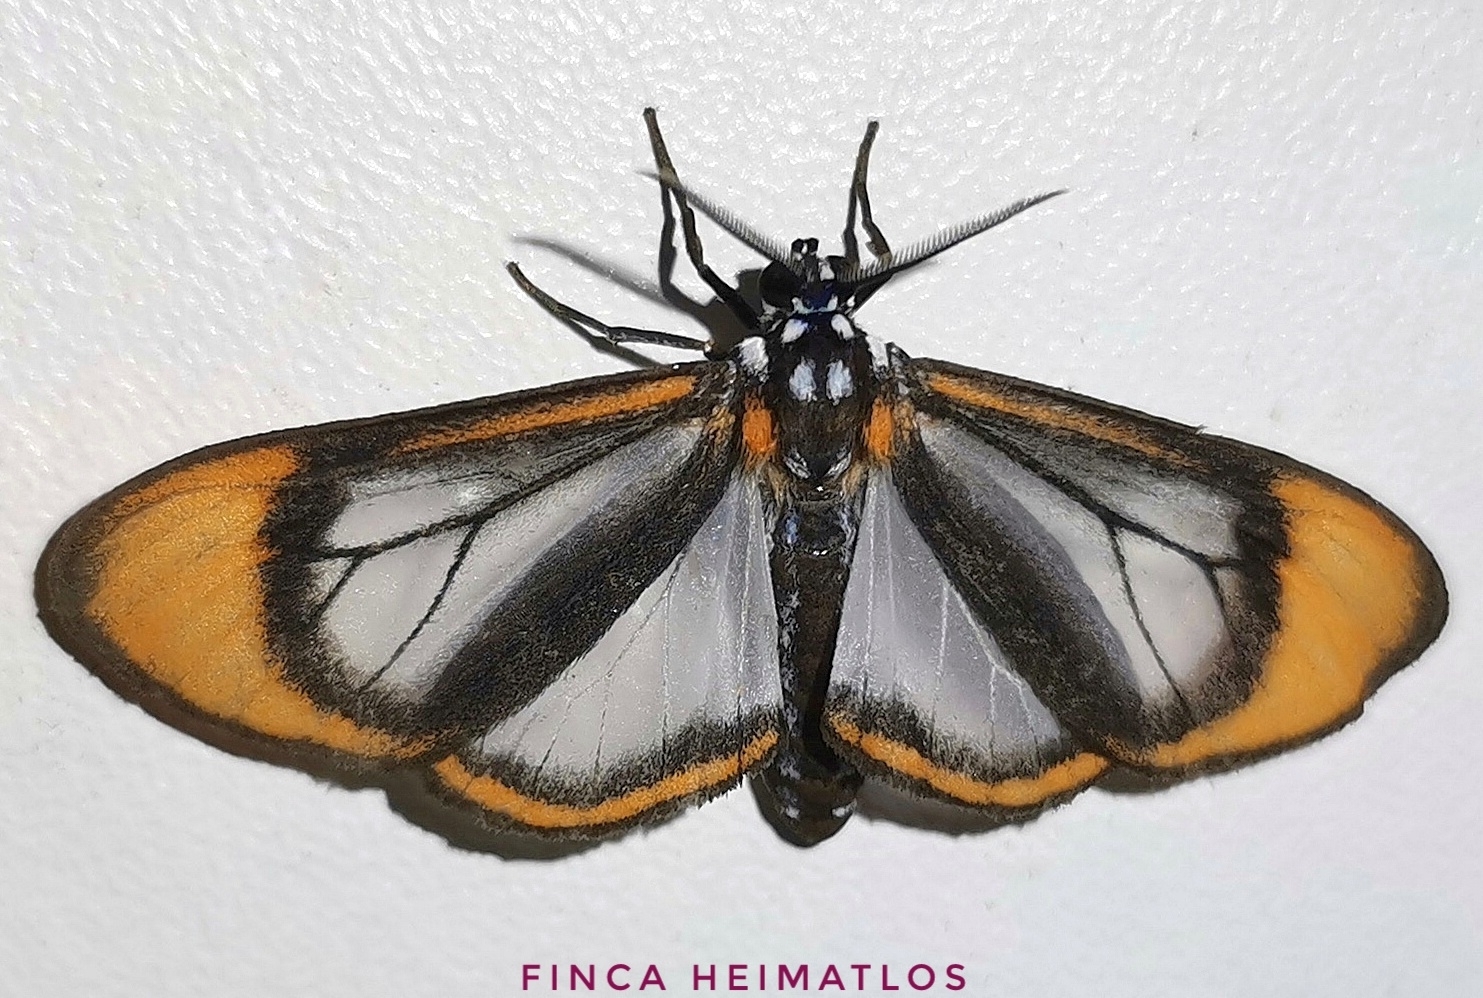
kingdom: Animalia
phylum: Arthropoda
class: Insecta
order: Lepidoptera
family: Erebidae
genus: Hyalurga
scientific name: Hyalurga padua
